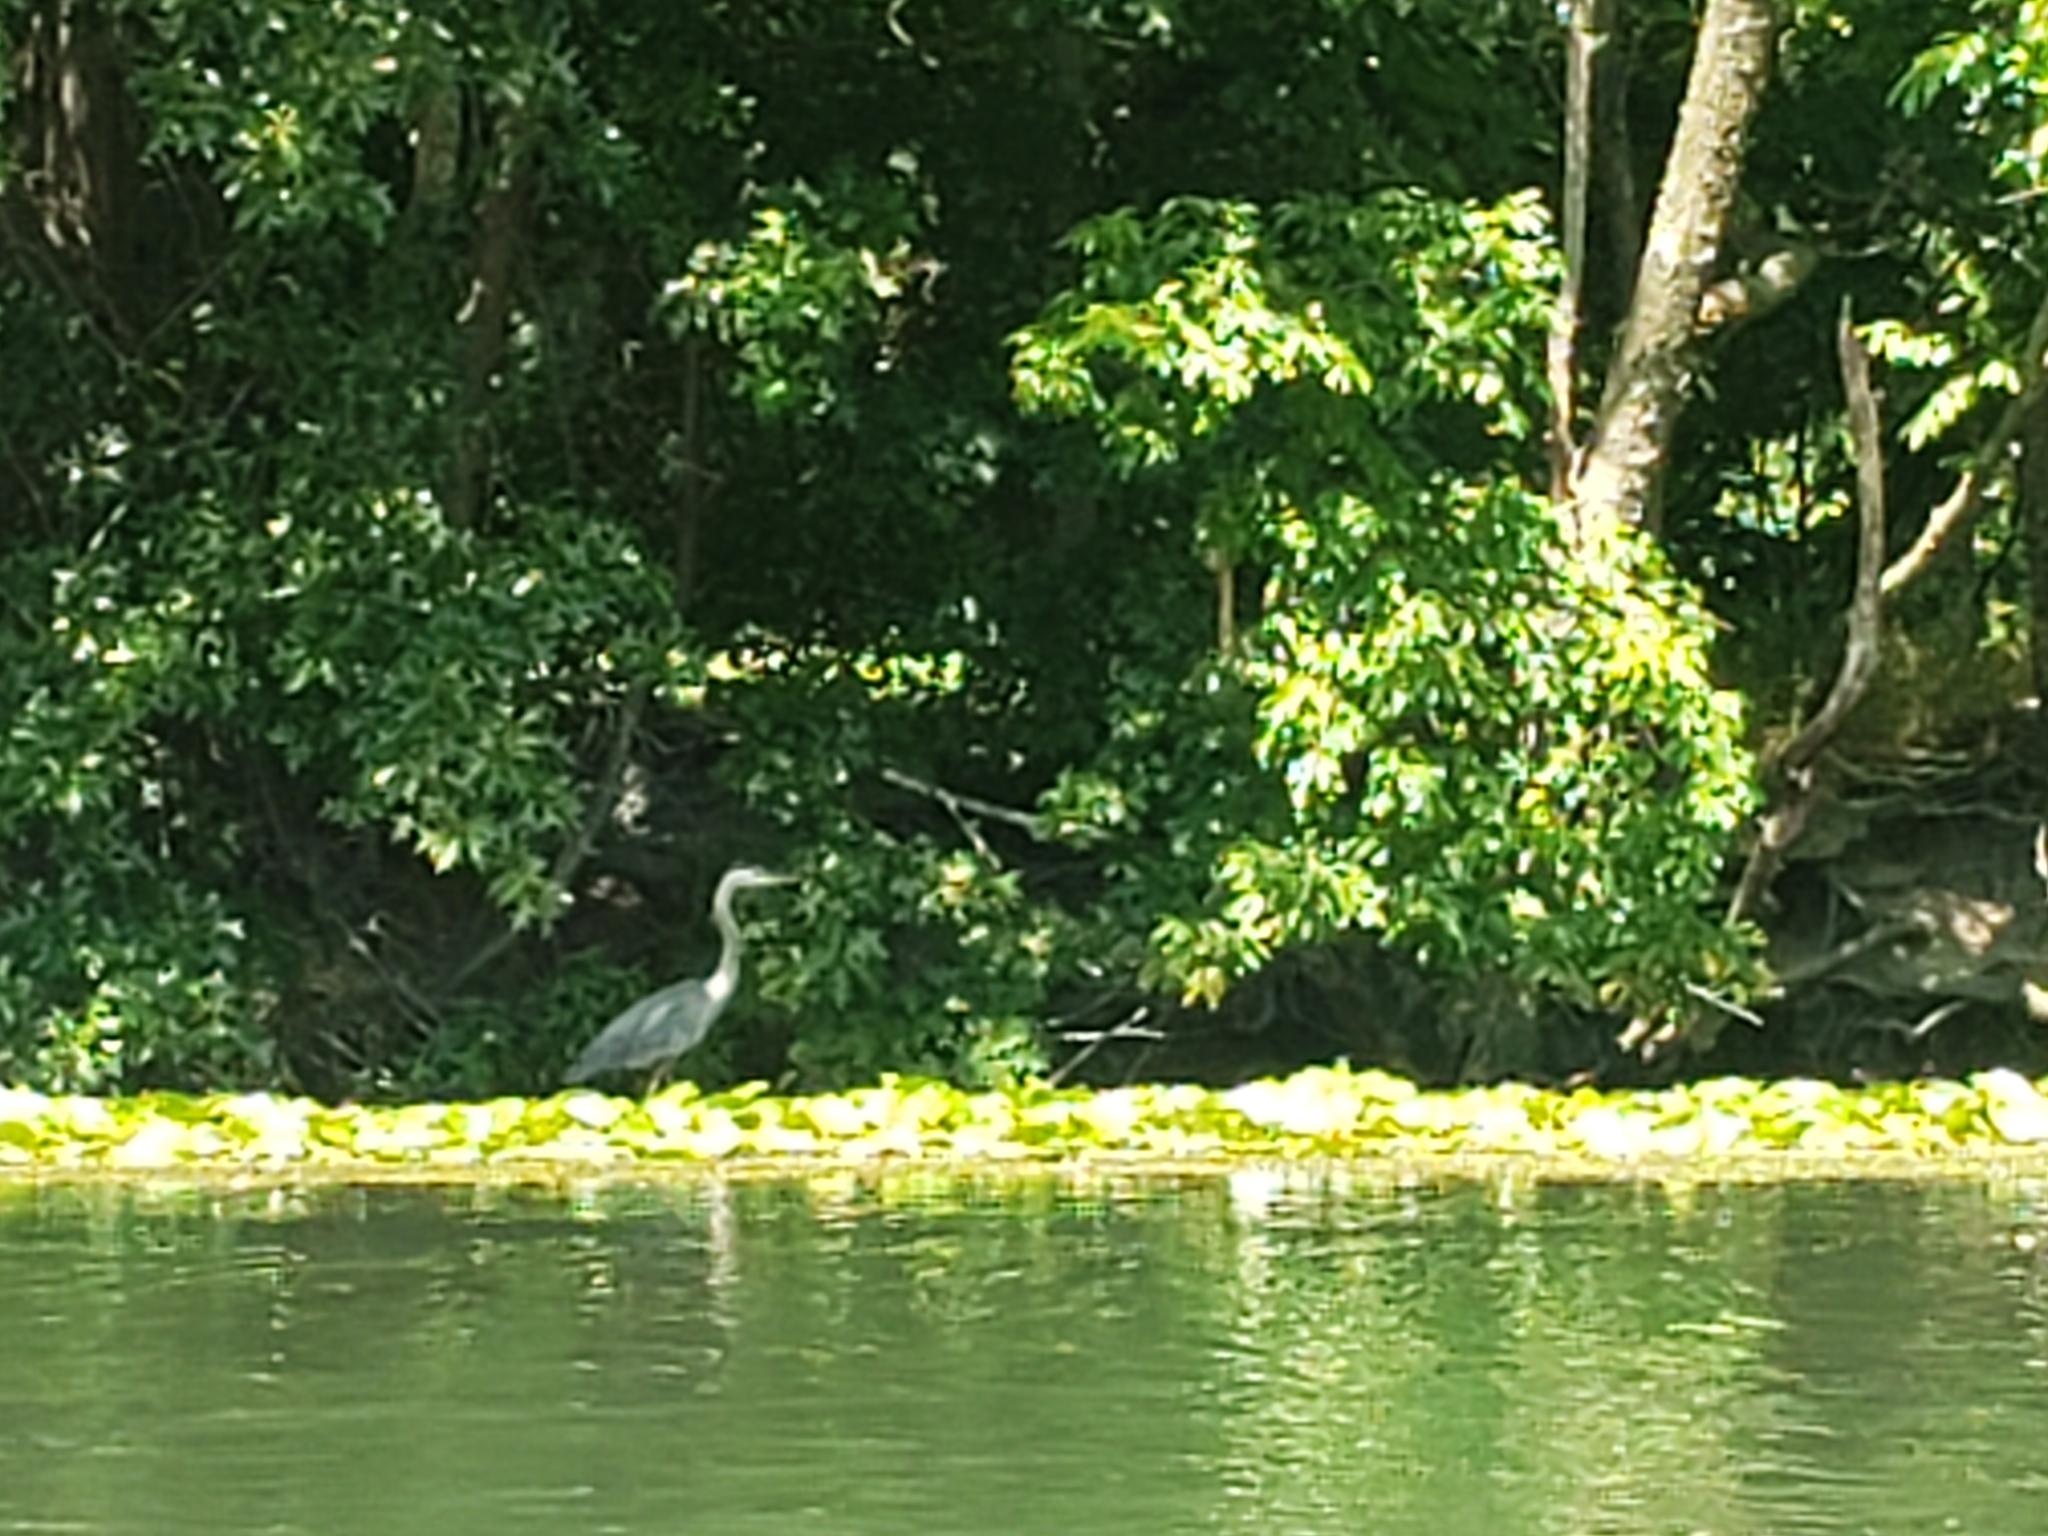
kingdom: Animalia
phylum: Chordata
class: Aves
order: Pelecaniformes
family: Ardeidae
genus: Ardea
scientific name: Ardea herodias
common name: Great blue heron
